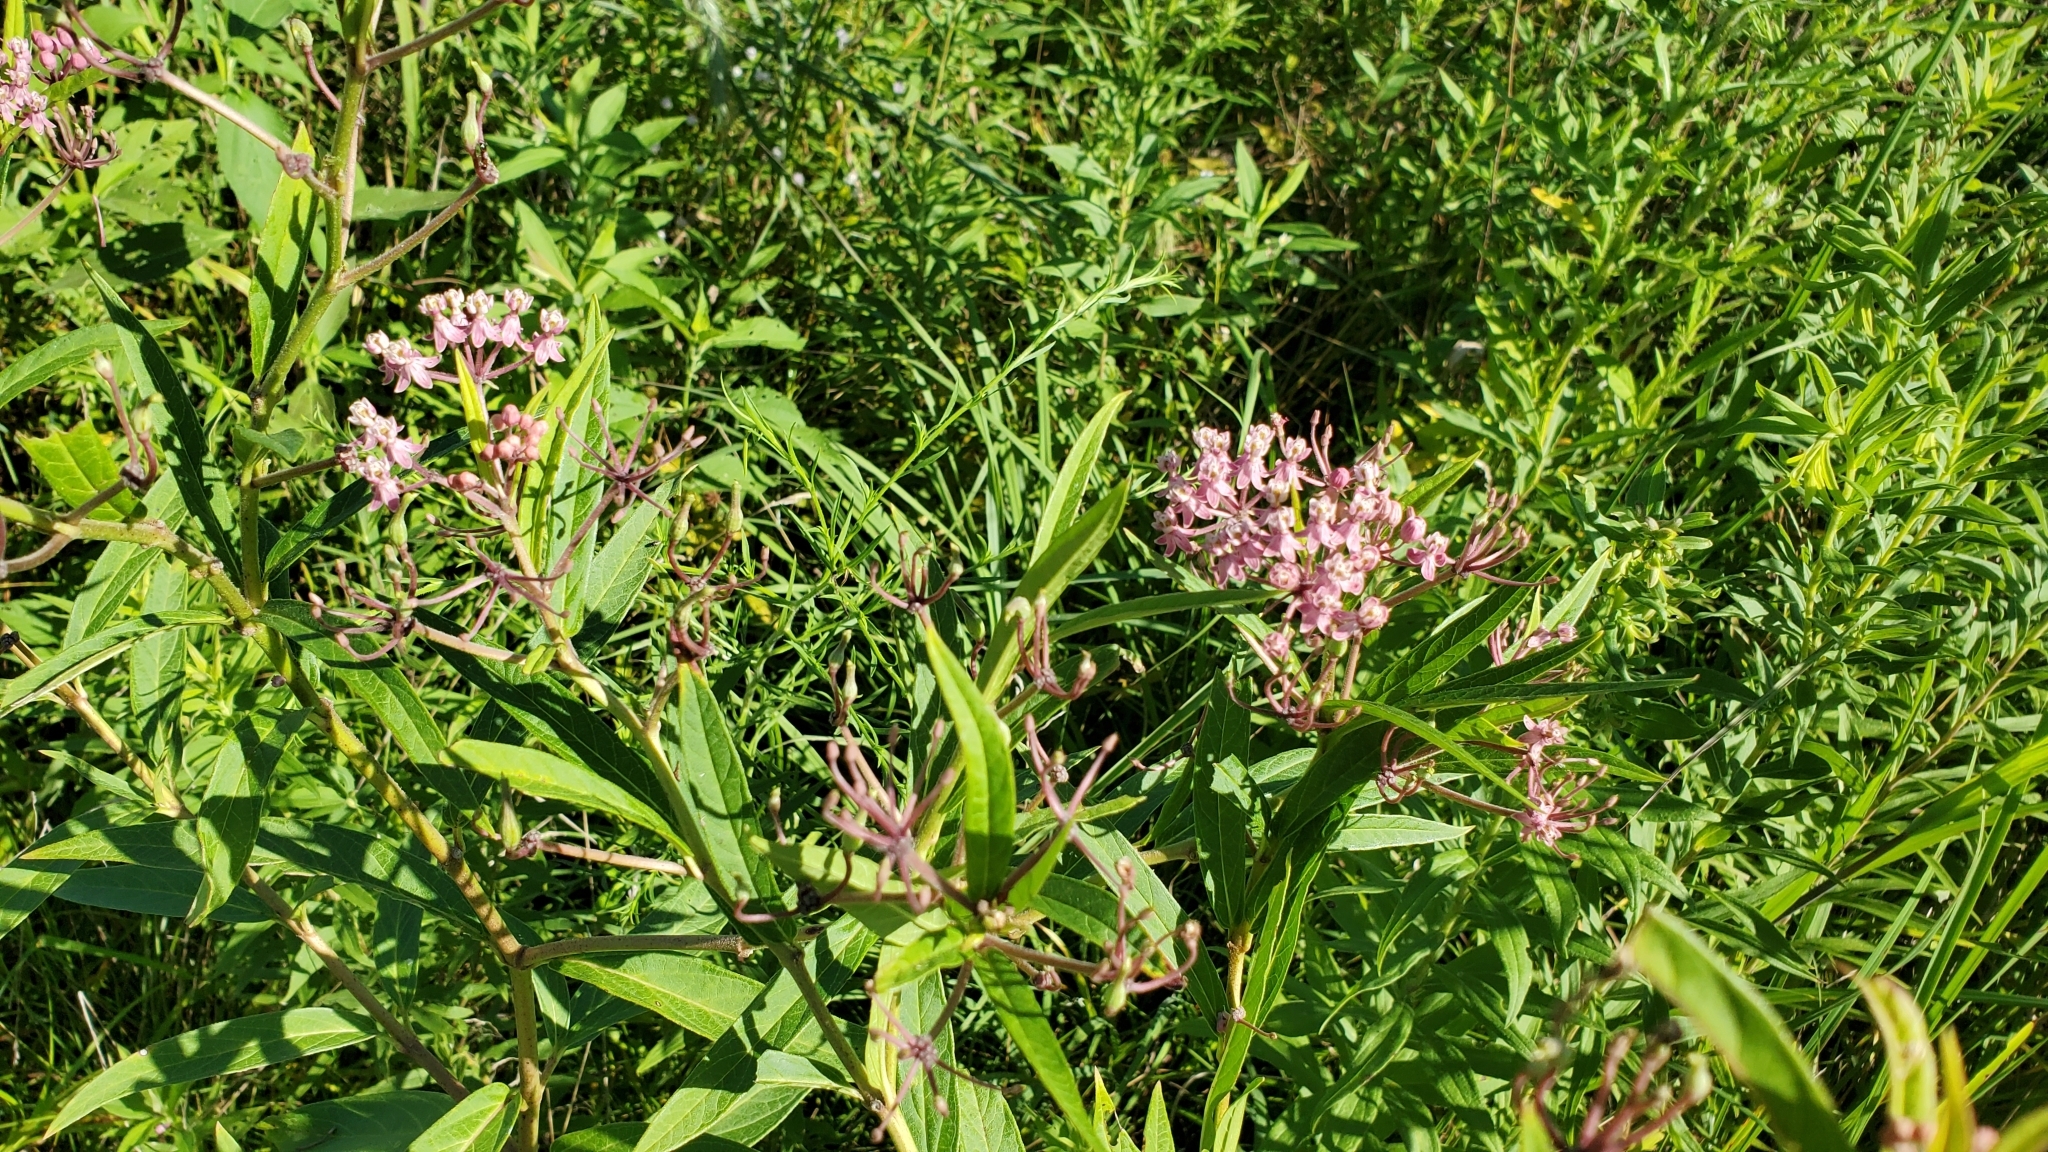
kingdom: Plantae
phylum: Tracheophyta
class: Magnoliopsida
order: Gentianales
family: Apocynaceae
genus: Asclepias
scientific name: Asclepias incarnata
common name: Swamp milkweed
